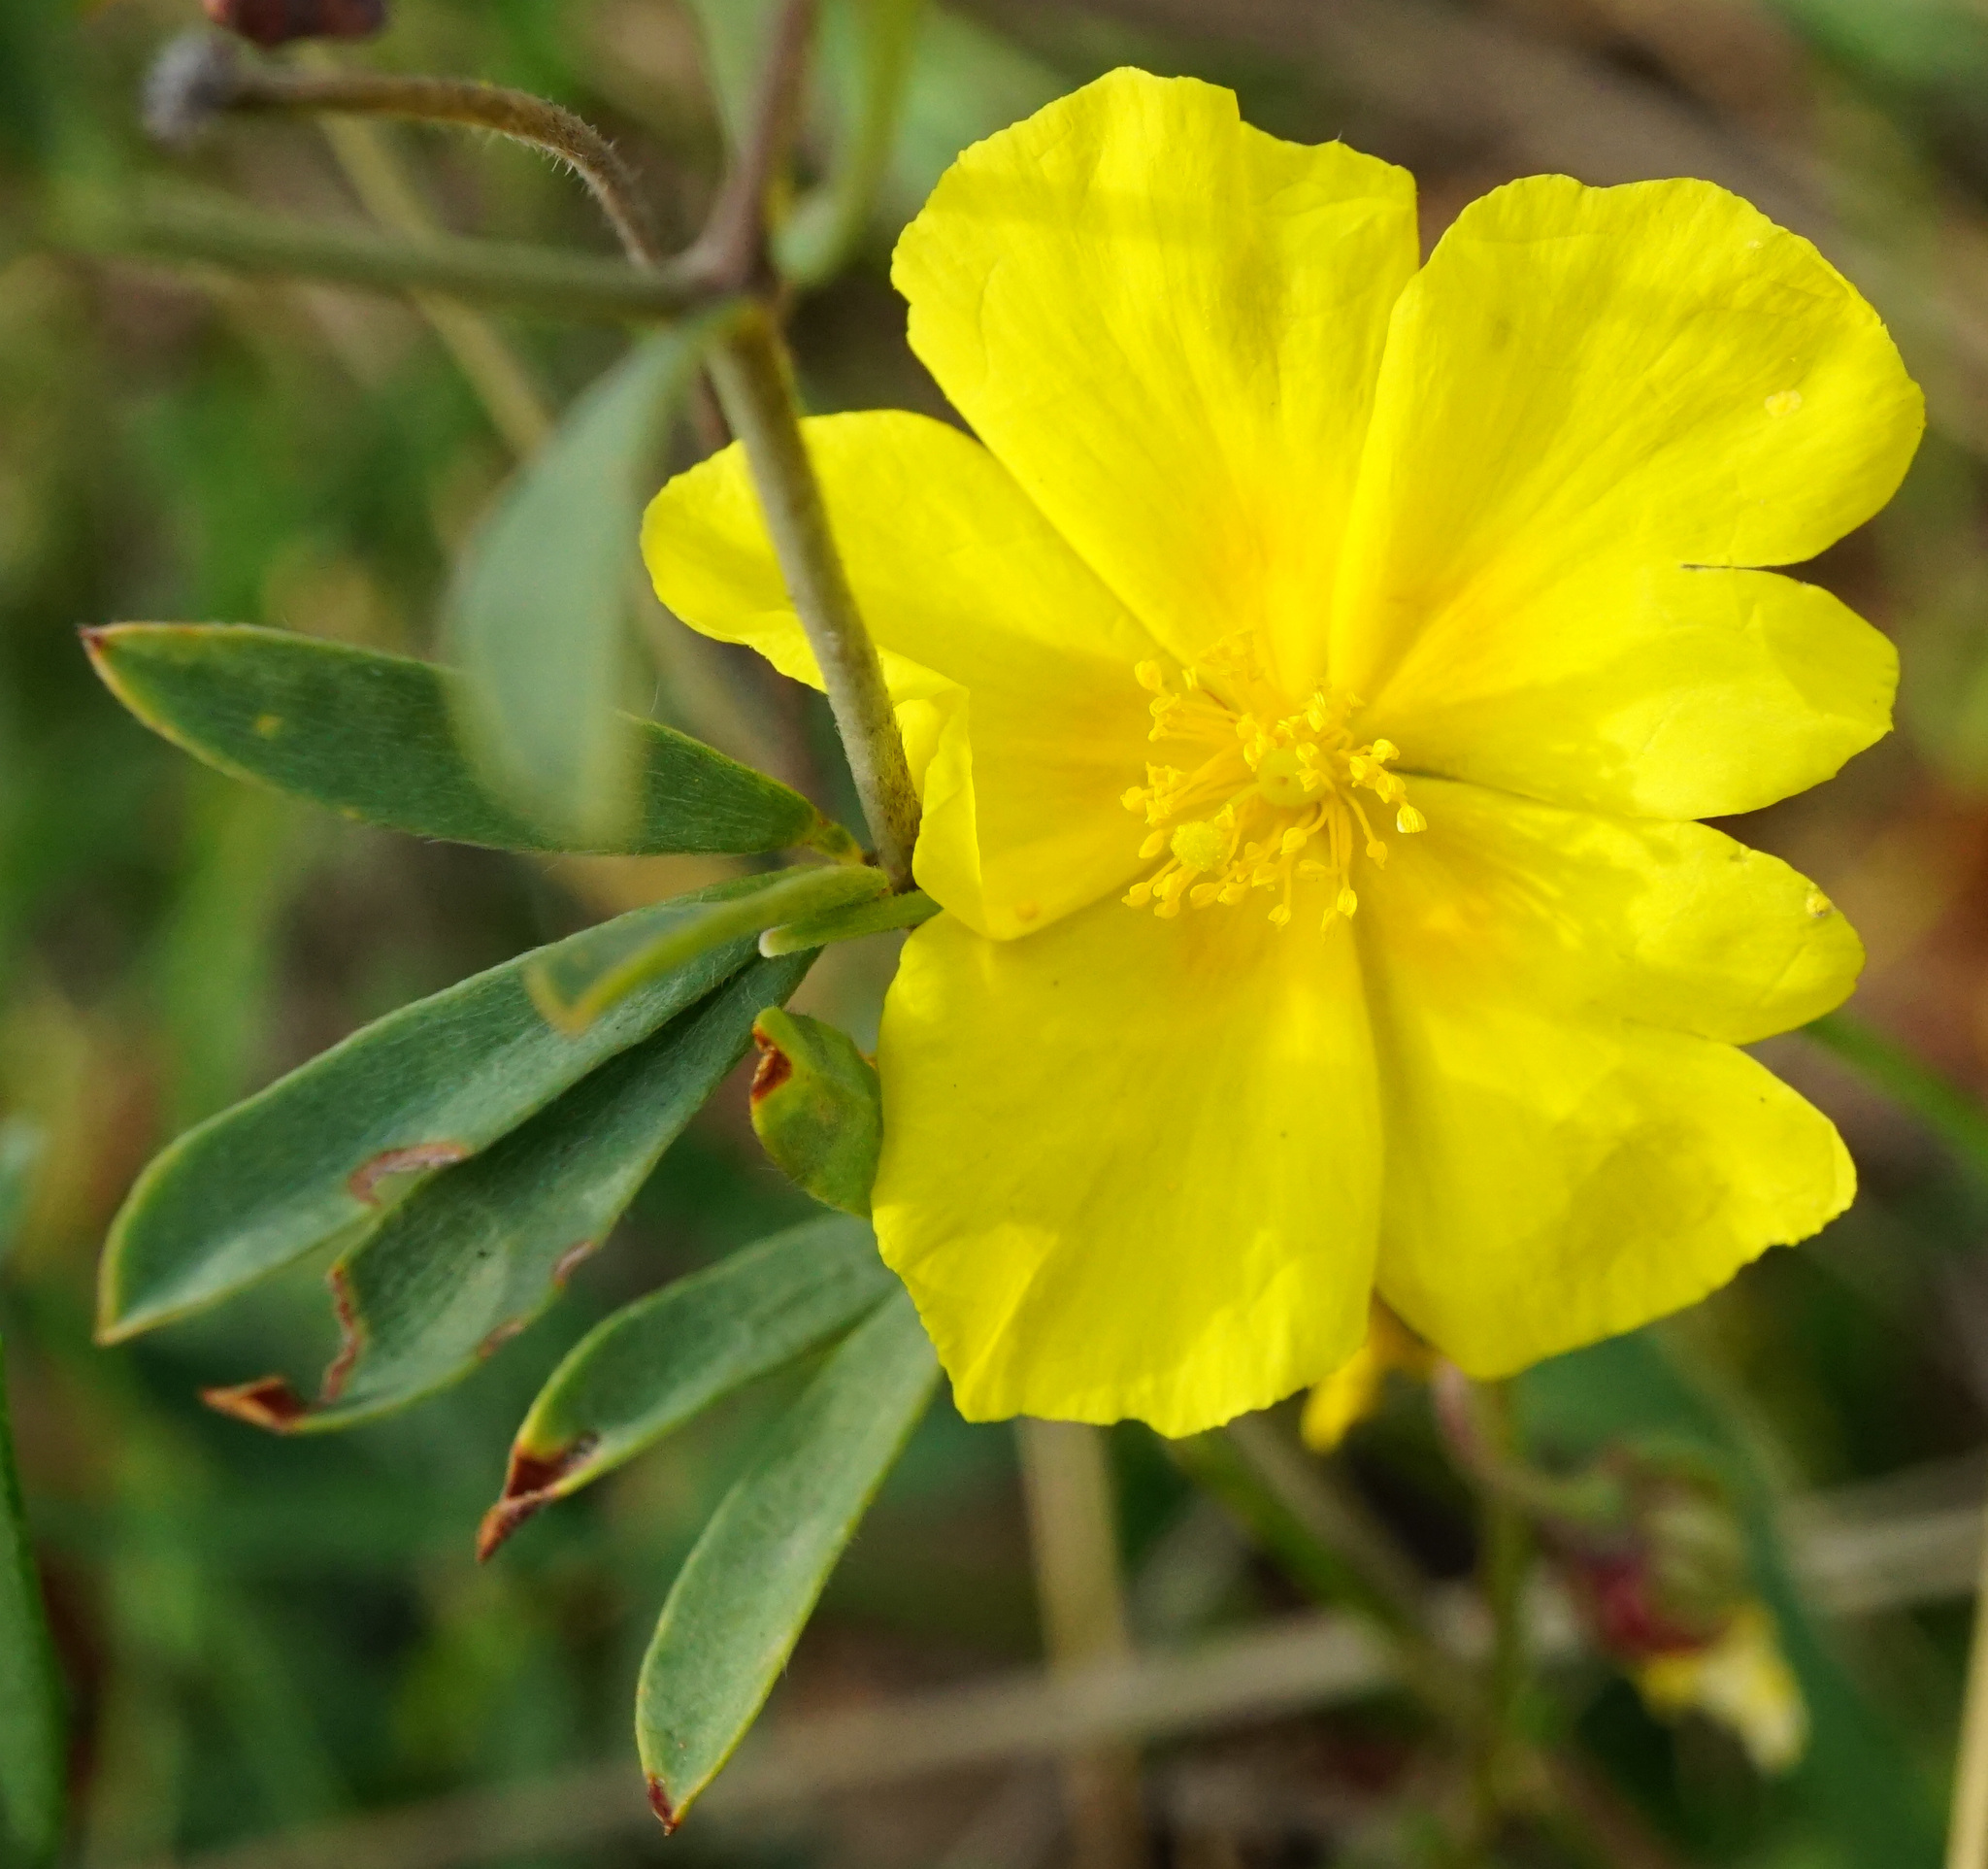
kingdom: Plantae
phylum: Tracheophyta
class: Magnoliopsida
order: Malvales
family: Cistaceae
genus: Helianthemum
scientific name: Helianthemum nummularium
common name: Common rock-rose
